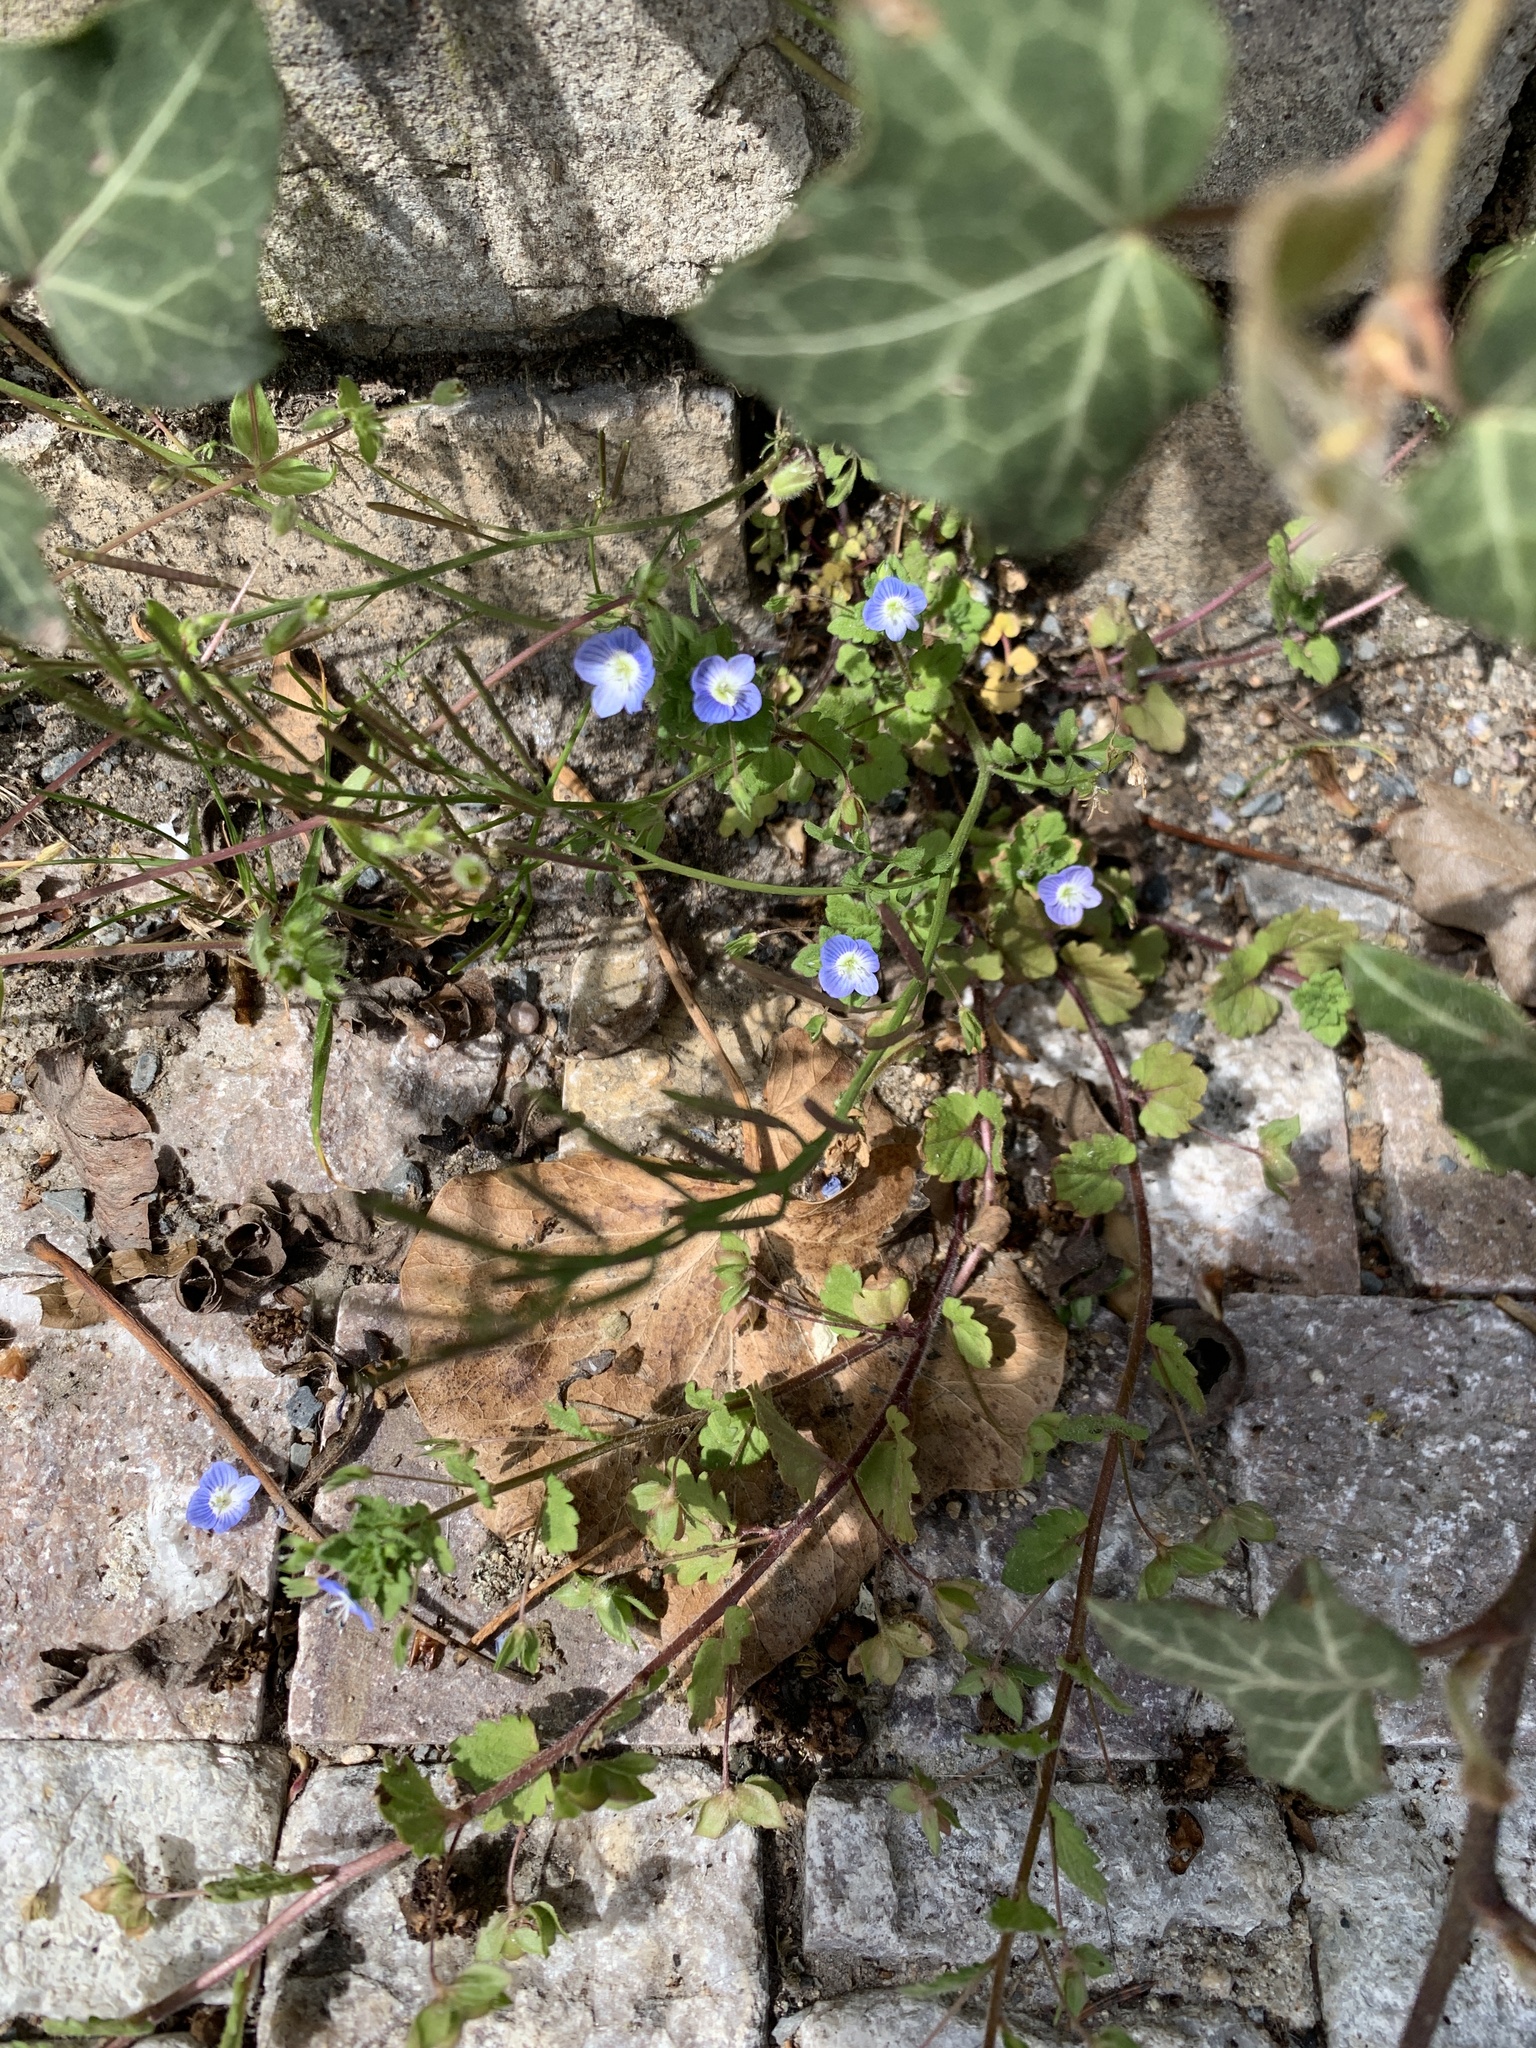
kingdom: Plantae
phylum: Tracheophyta
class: Magnoliopsida
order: Lamiales
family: Plantaginaceae
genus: Veronica
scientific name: Veronica persica
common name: Common field-speedwell
